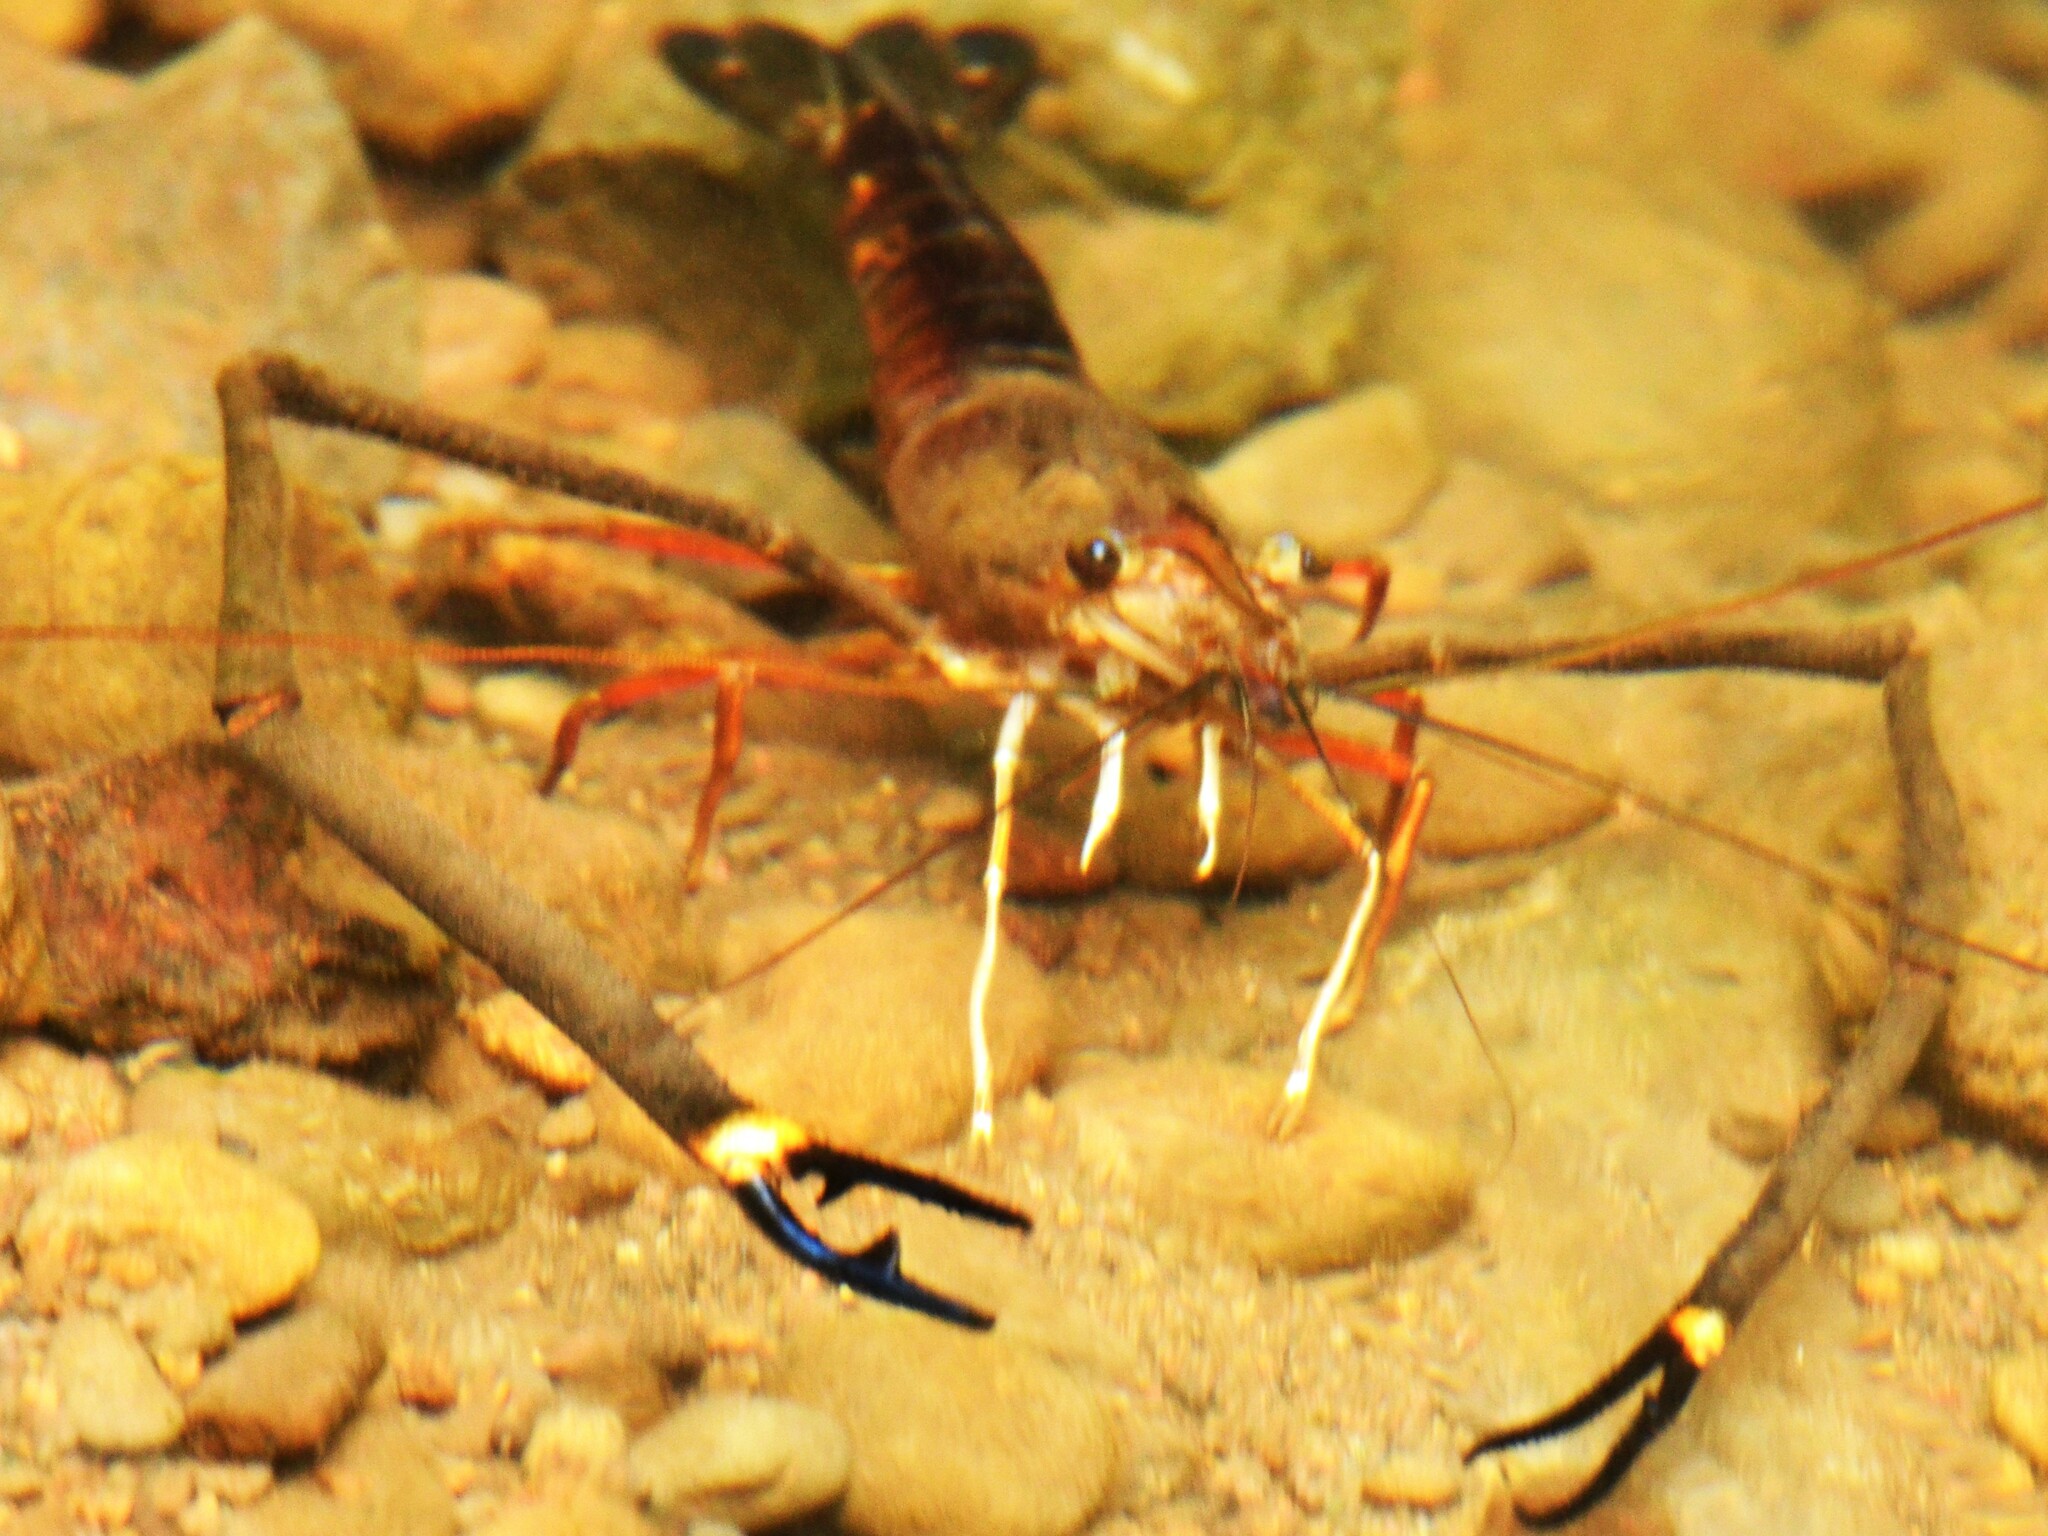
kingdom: Animalia
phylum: Arthropoda
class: Malacostraca
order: Decapoda
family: Palaemonidae
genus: Macrobrachium
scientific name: Macrobrachium lar
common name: Monkey river prawn
